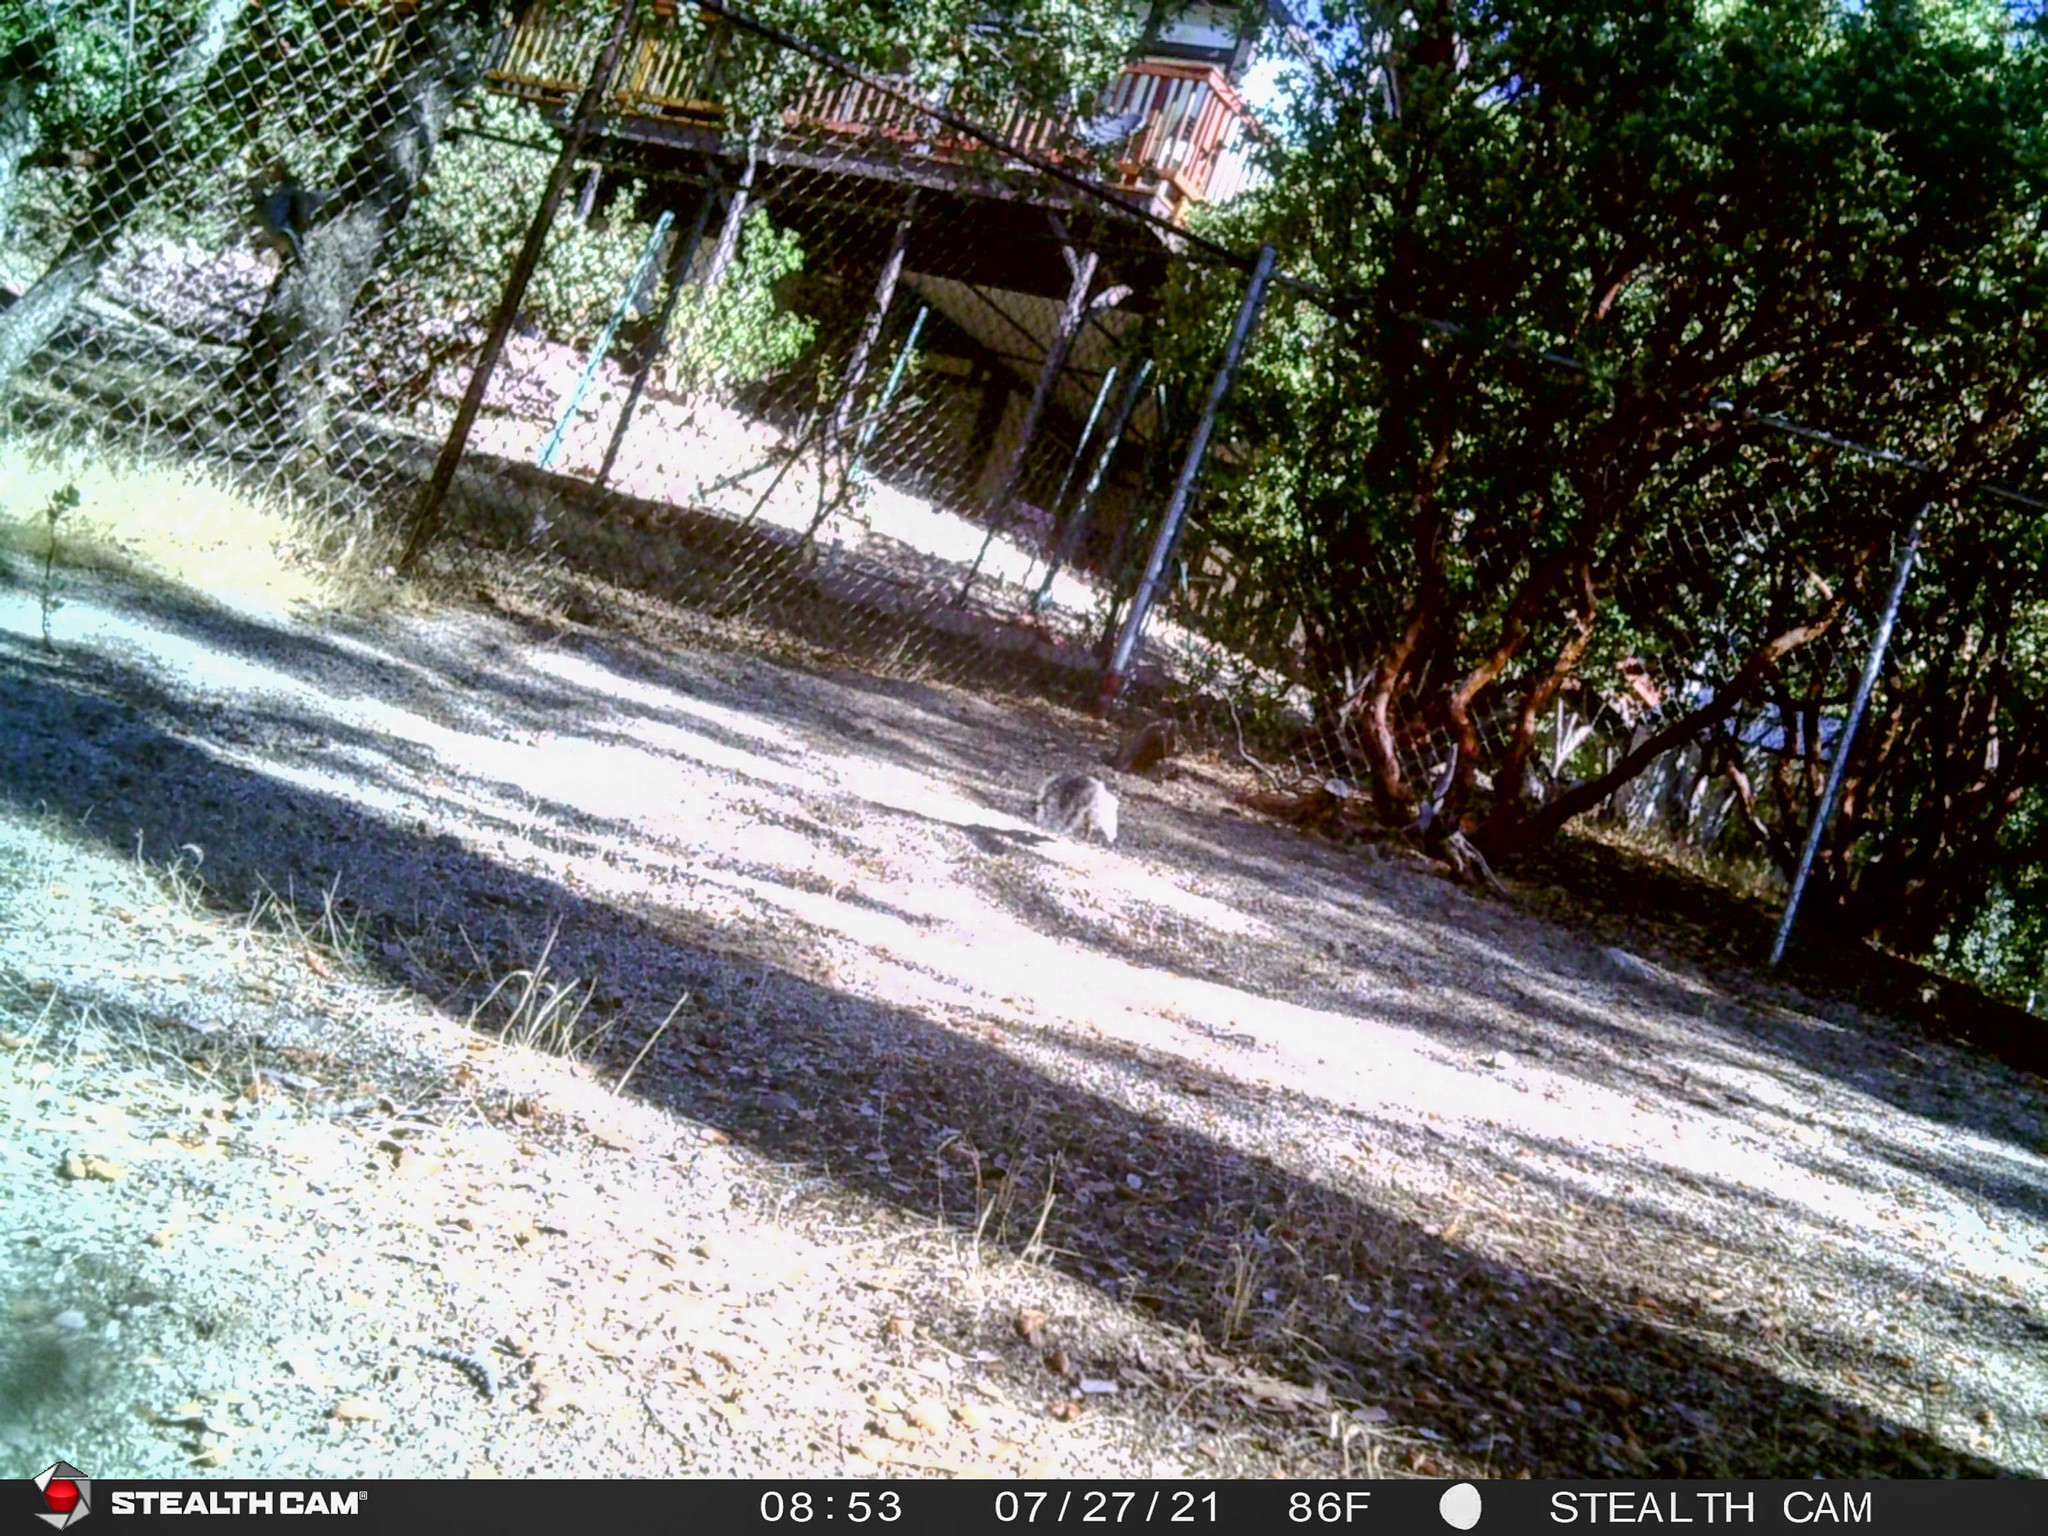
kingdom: Animalia
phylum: Chordata
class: Mammalia
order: Rodentia
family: Sciuridae
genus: Sciurus
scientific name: Sciurus griseus
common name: Western gray squirrel
